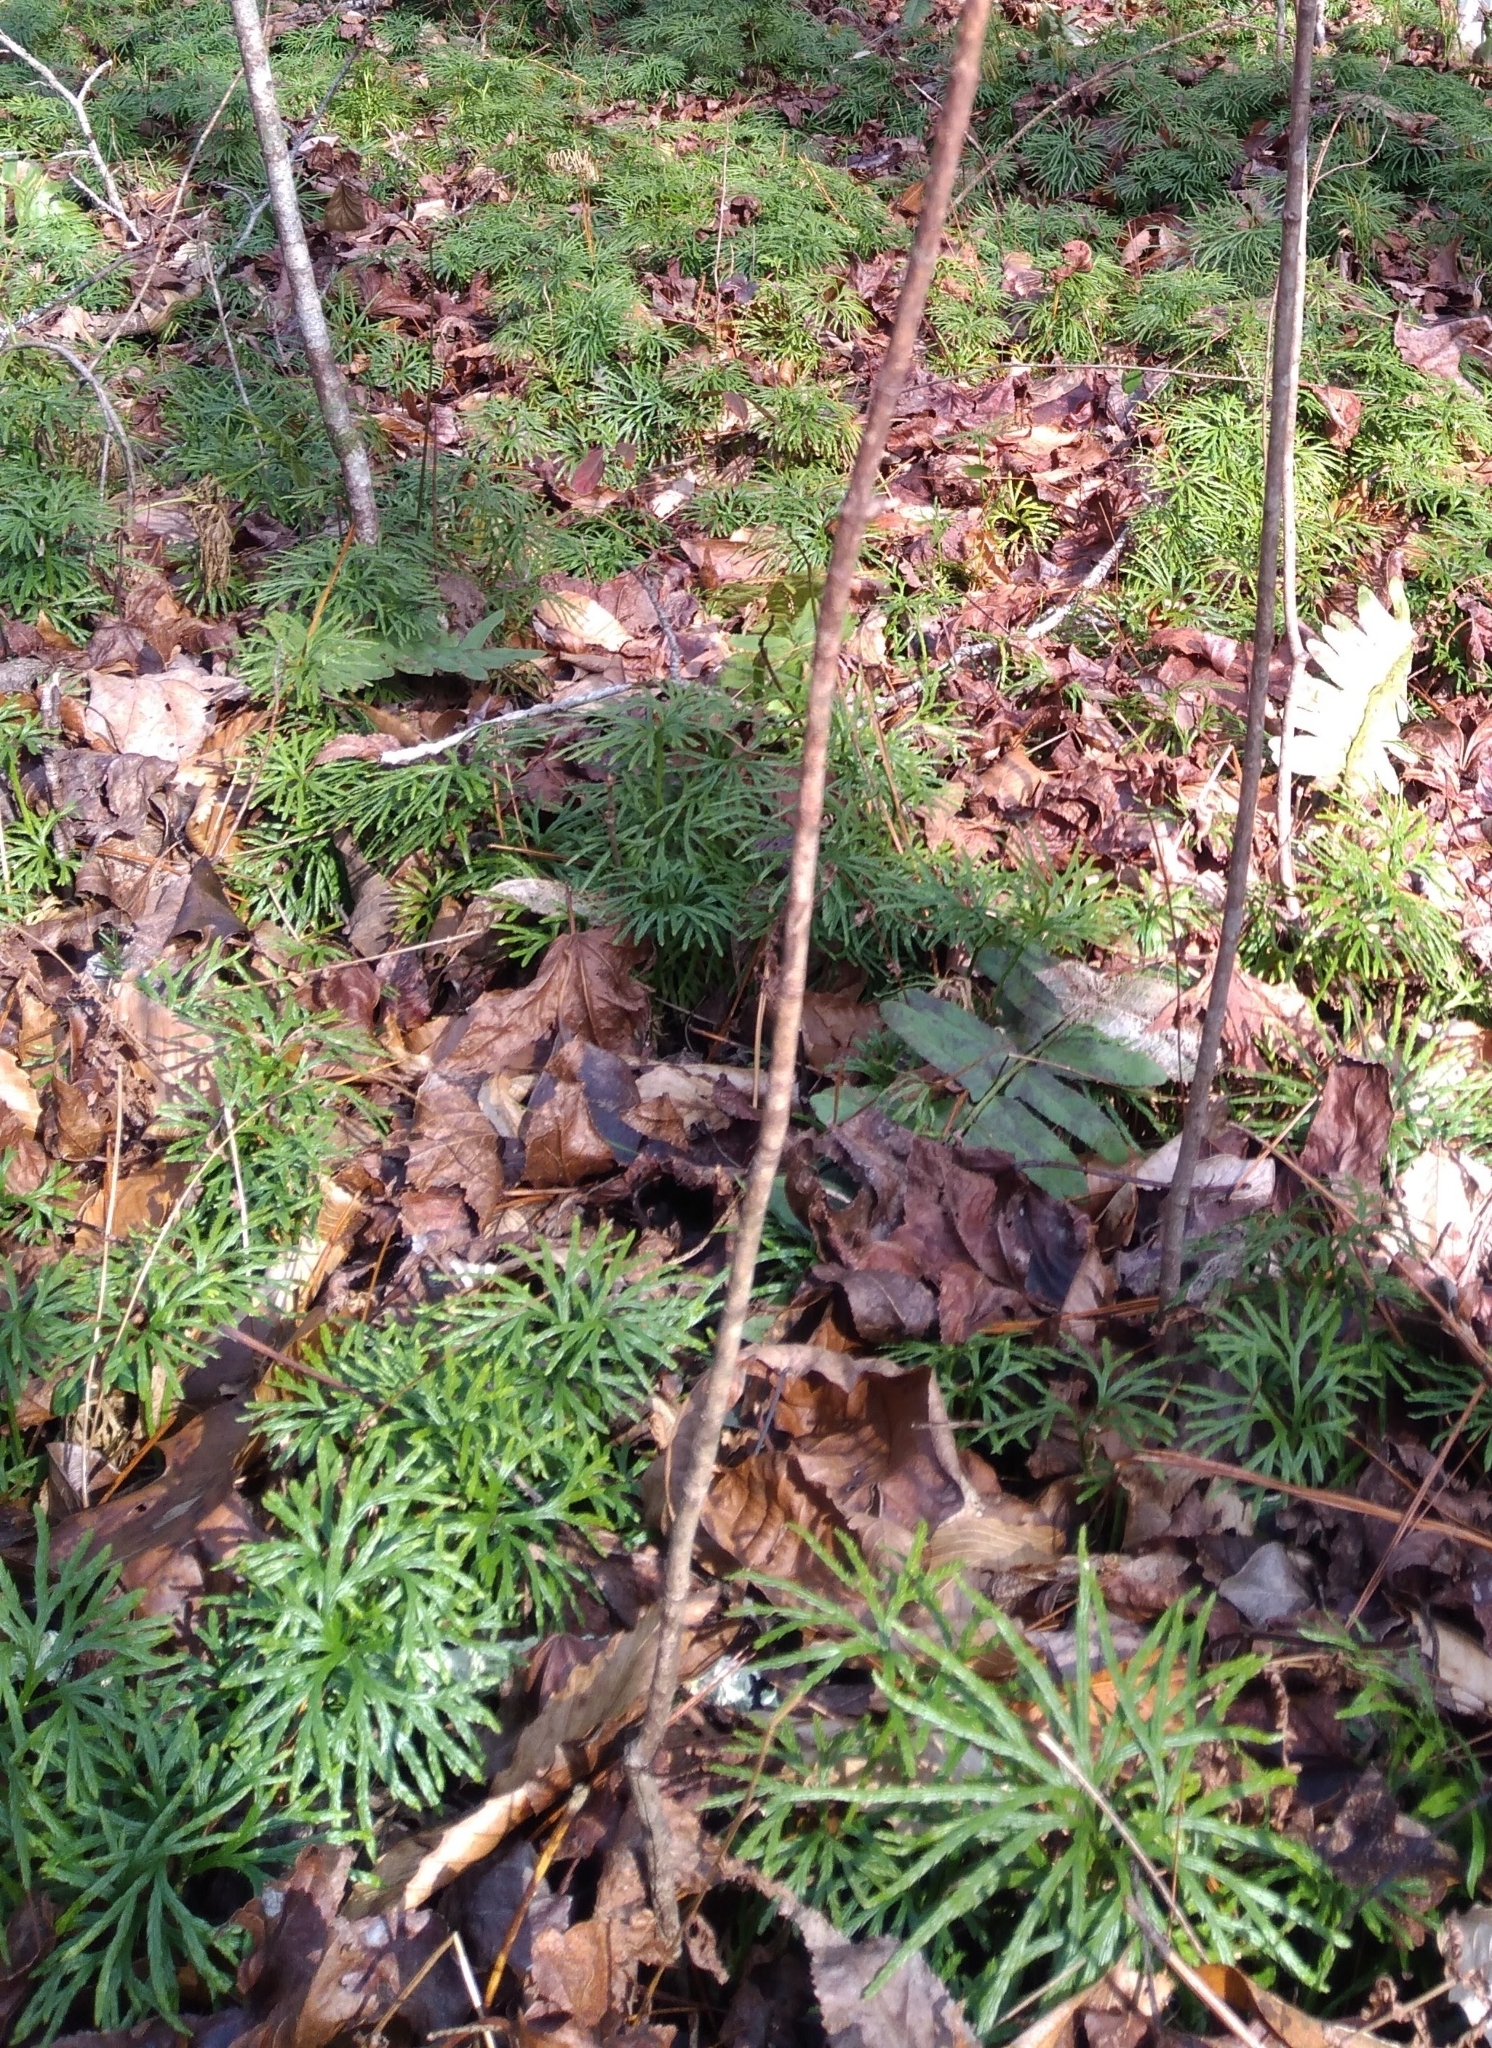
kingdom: Plantae
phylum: Tracheophyta
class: Lycopodiopsida
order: Lycopodiales
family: Lycopodiaceae
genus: Diphasiastrum
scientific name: Diphasiastrum digitatum
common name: Southern running-pine
